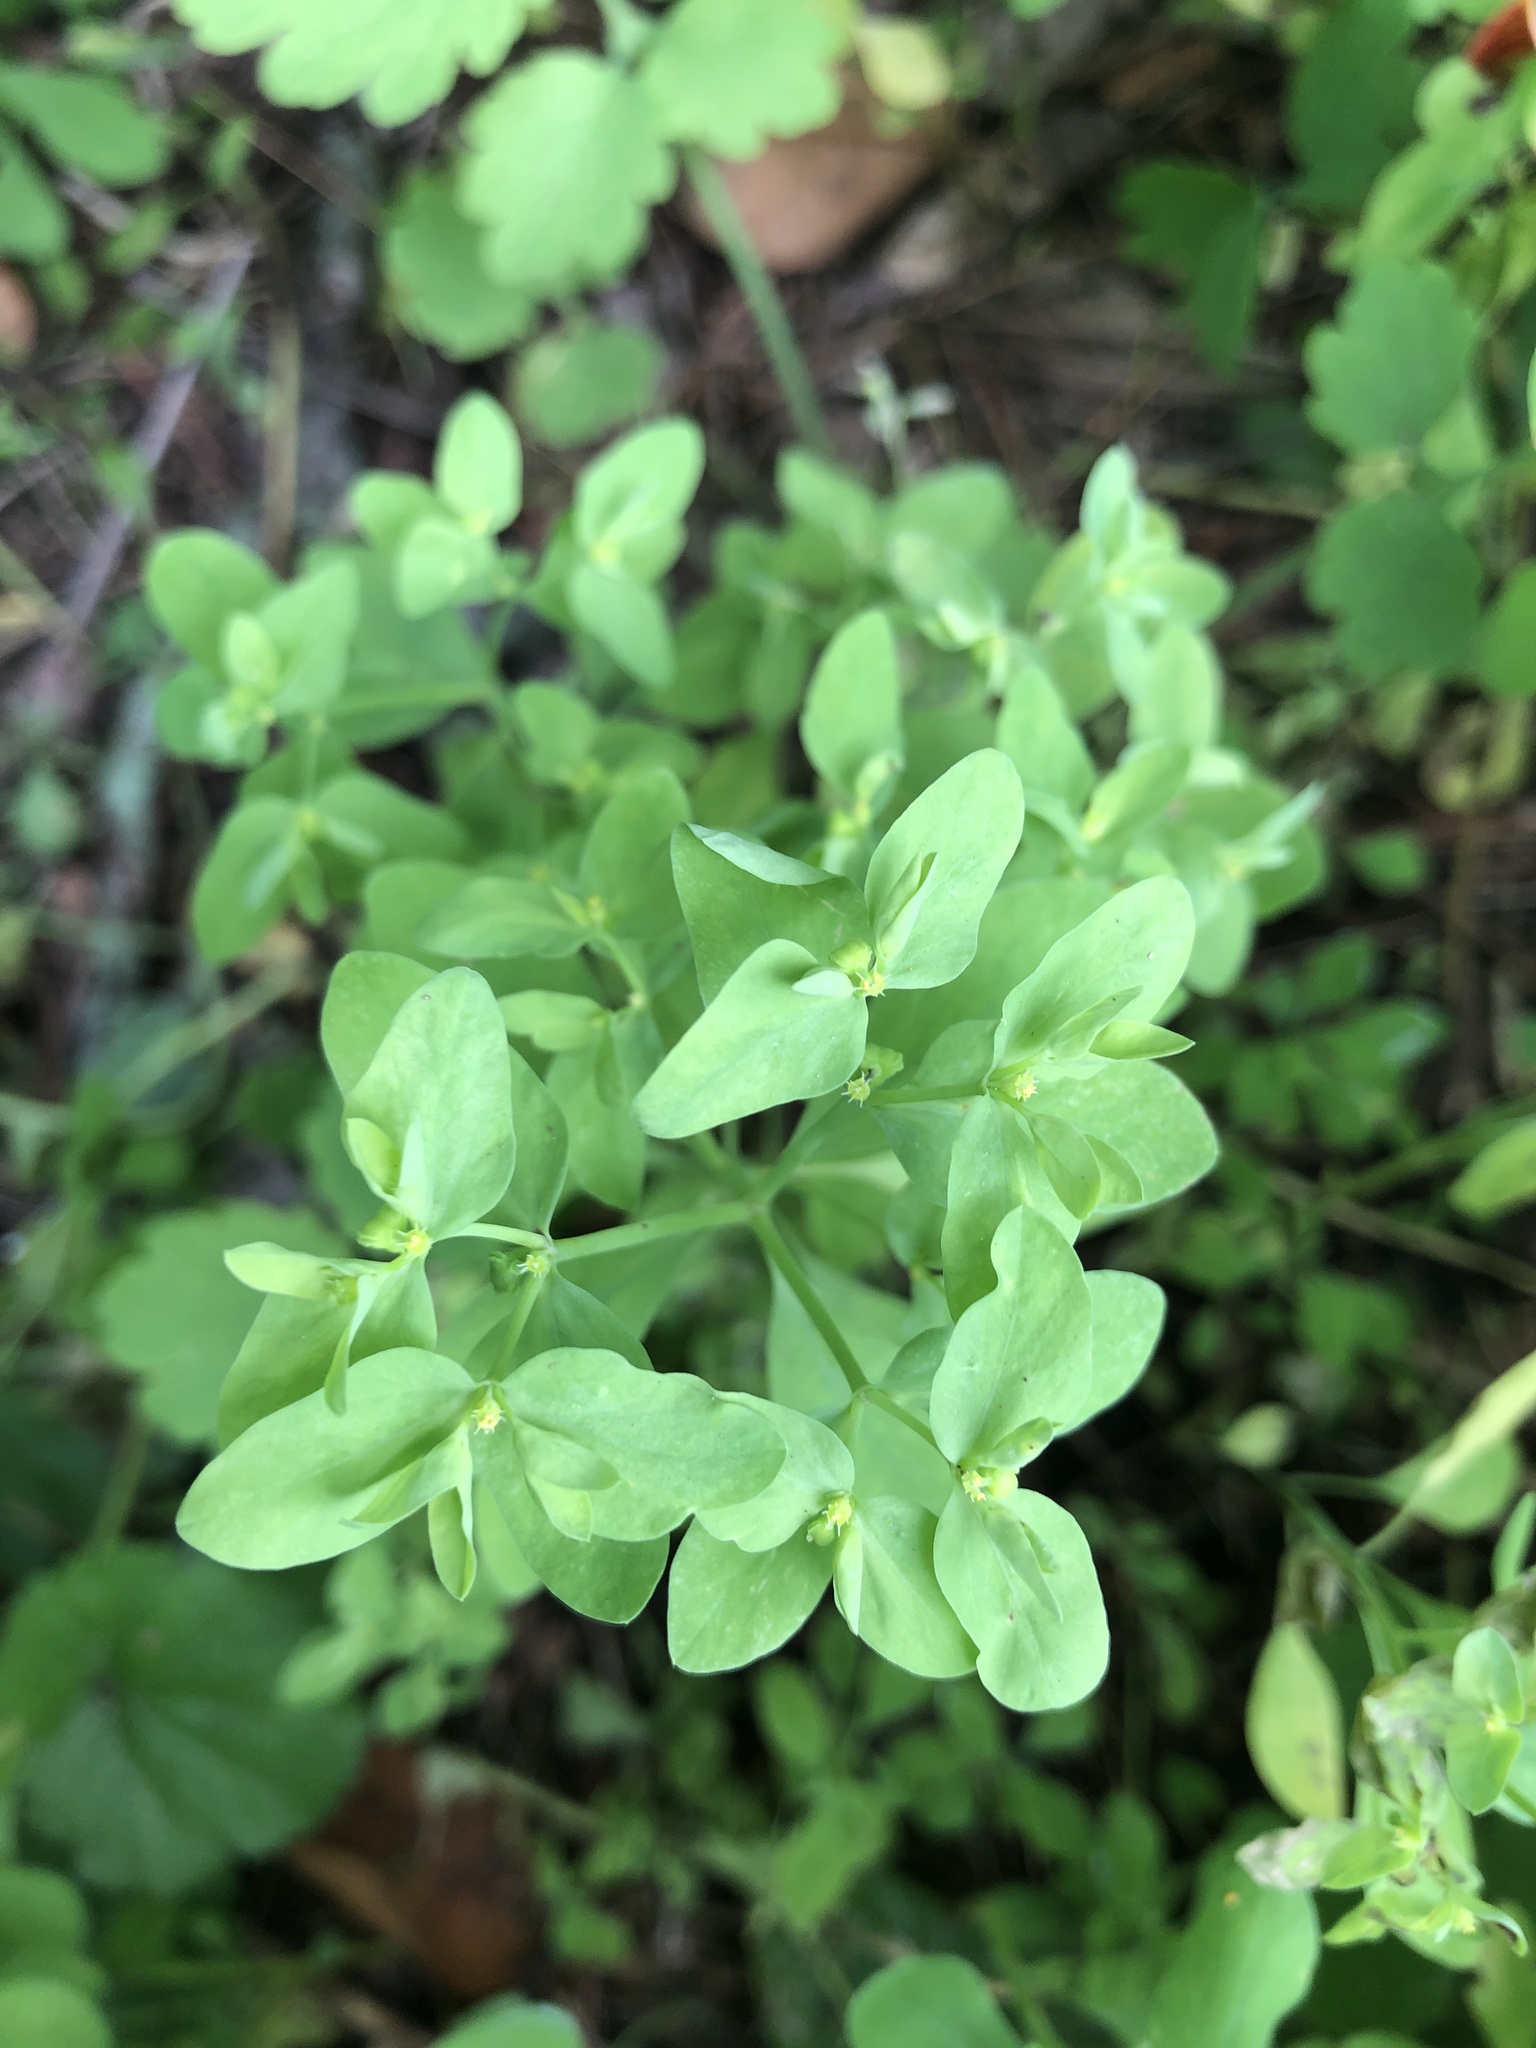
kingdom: Plantae
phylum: Tracheophyta
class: Magnoliopsida
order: Malpighiales
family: Euphorbiaceae
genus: Euphorbia
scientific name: Euphorbia peplus
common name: Petty spurge
